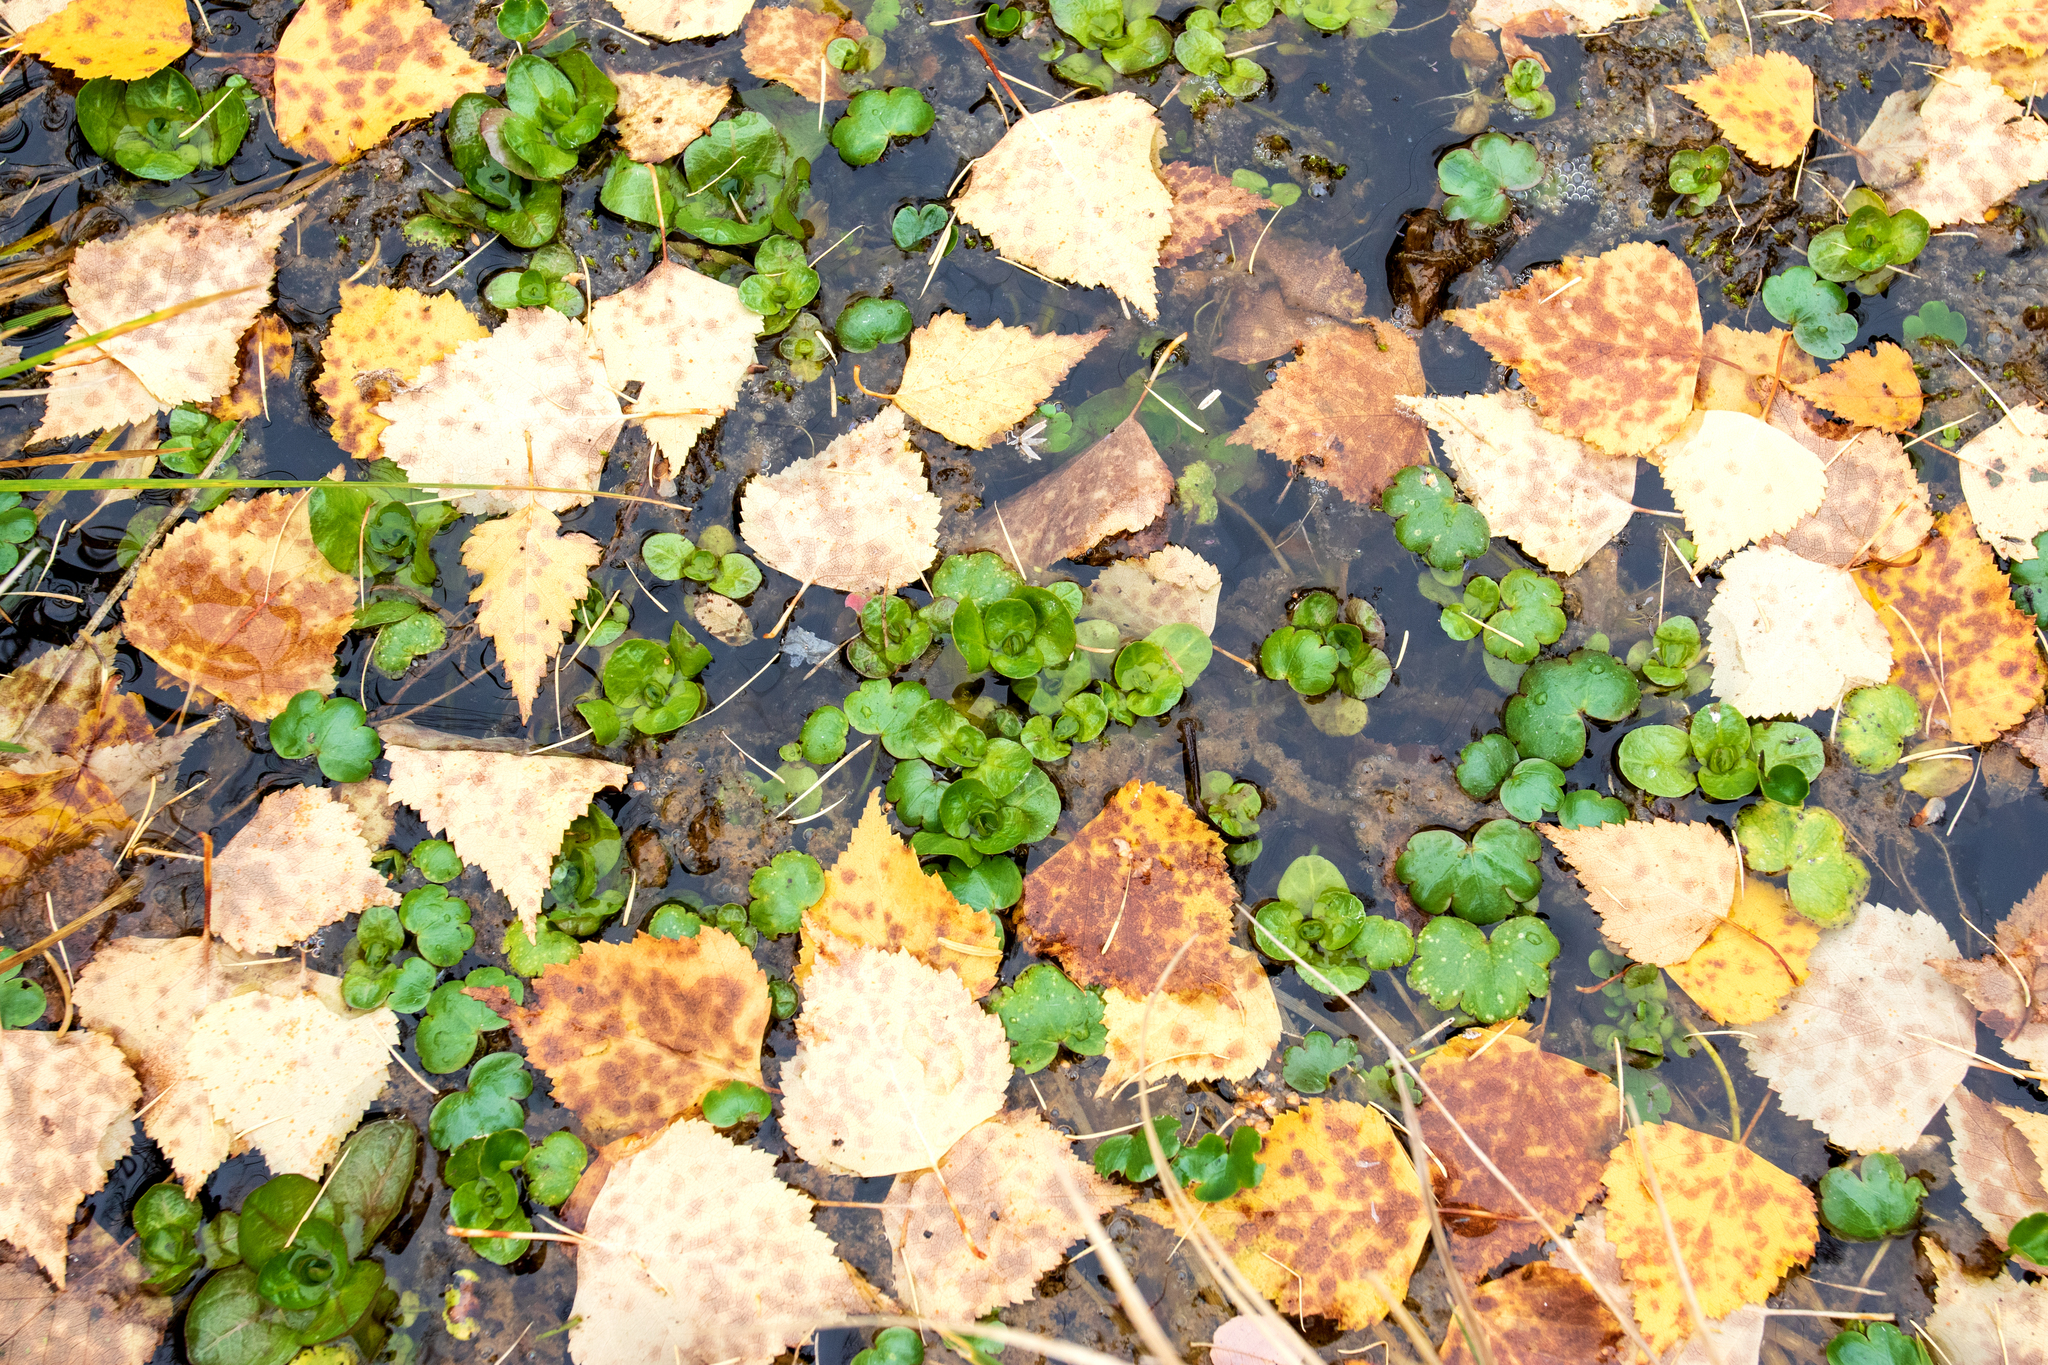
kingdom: Plantae
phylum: Tracheophyta
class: Magnoliopsida
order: Lamiales
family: Plantaginaceae
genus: Veronica
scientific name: Veronica beccabunga
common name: Brooklime
